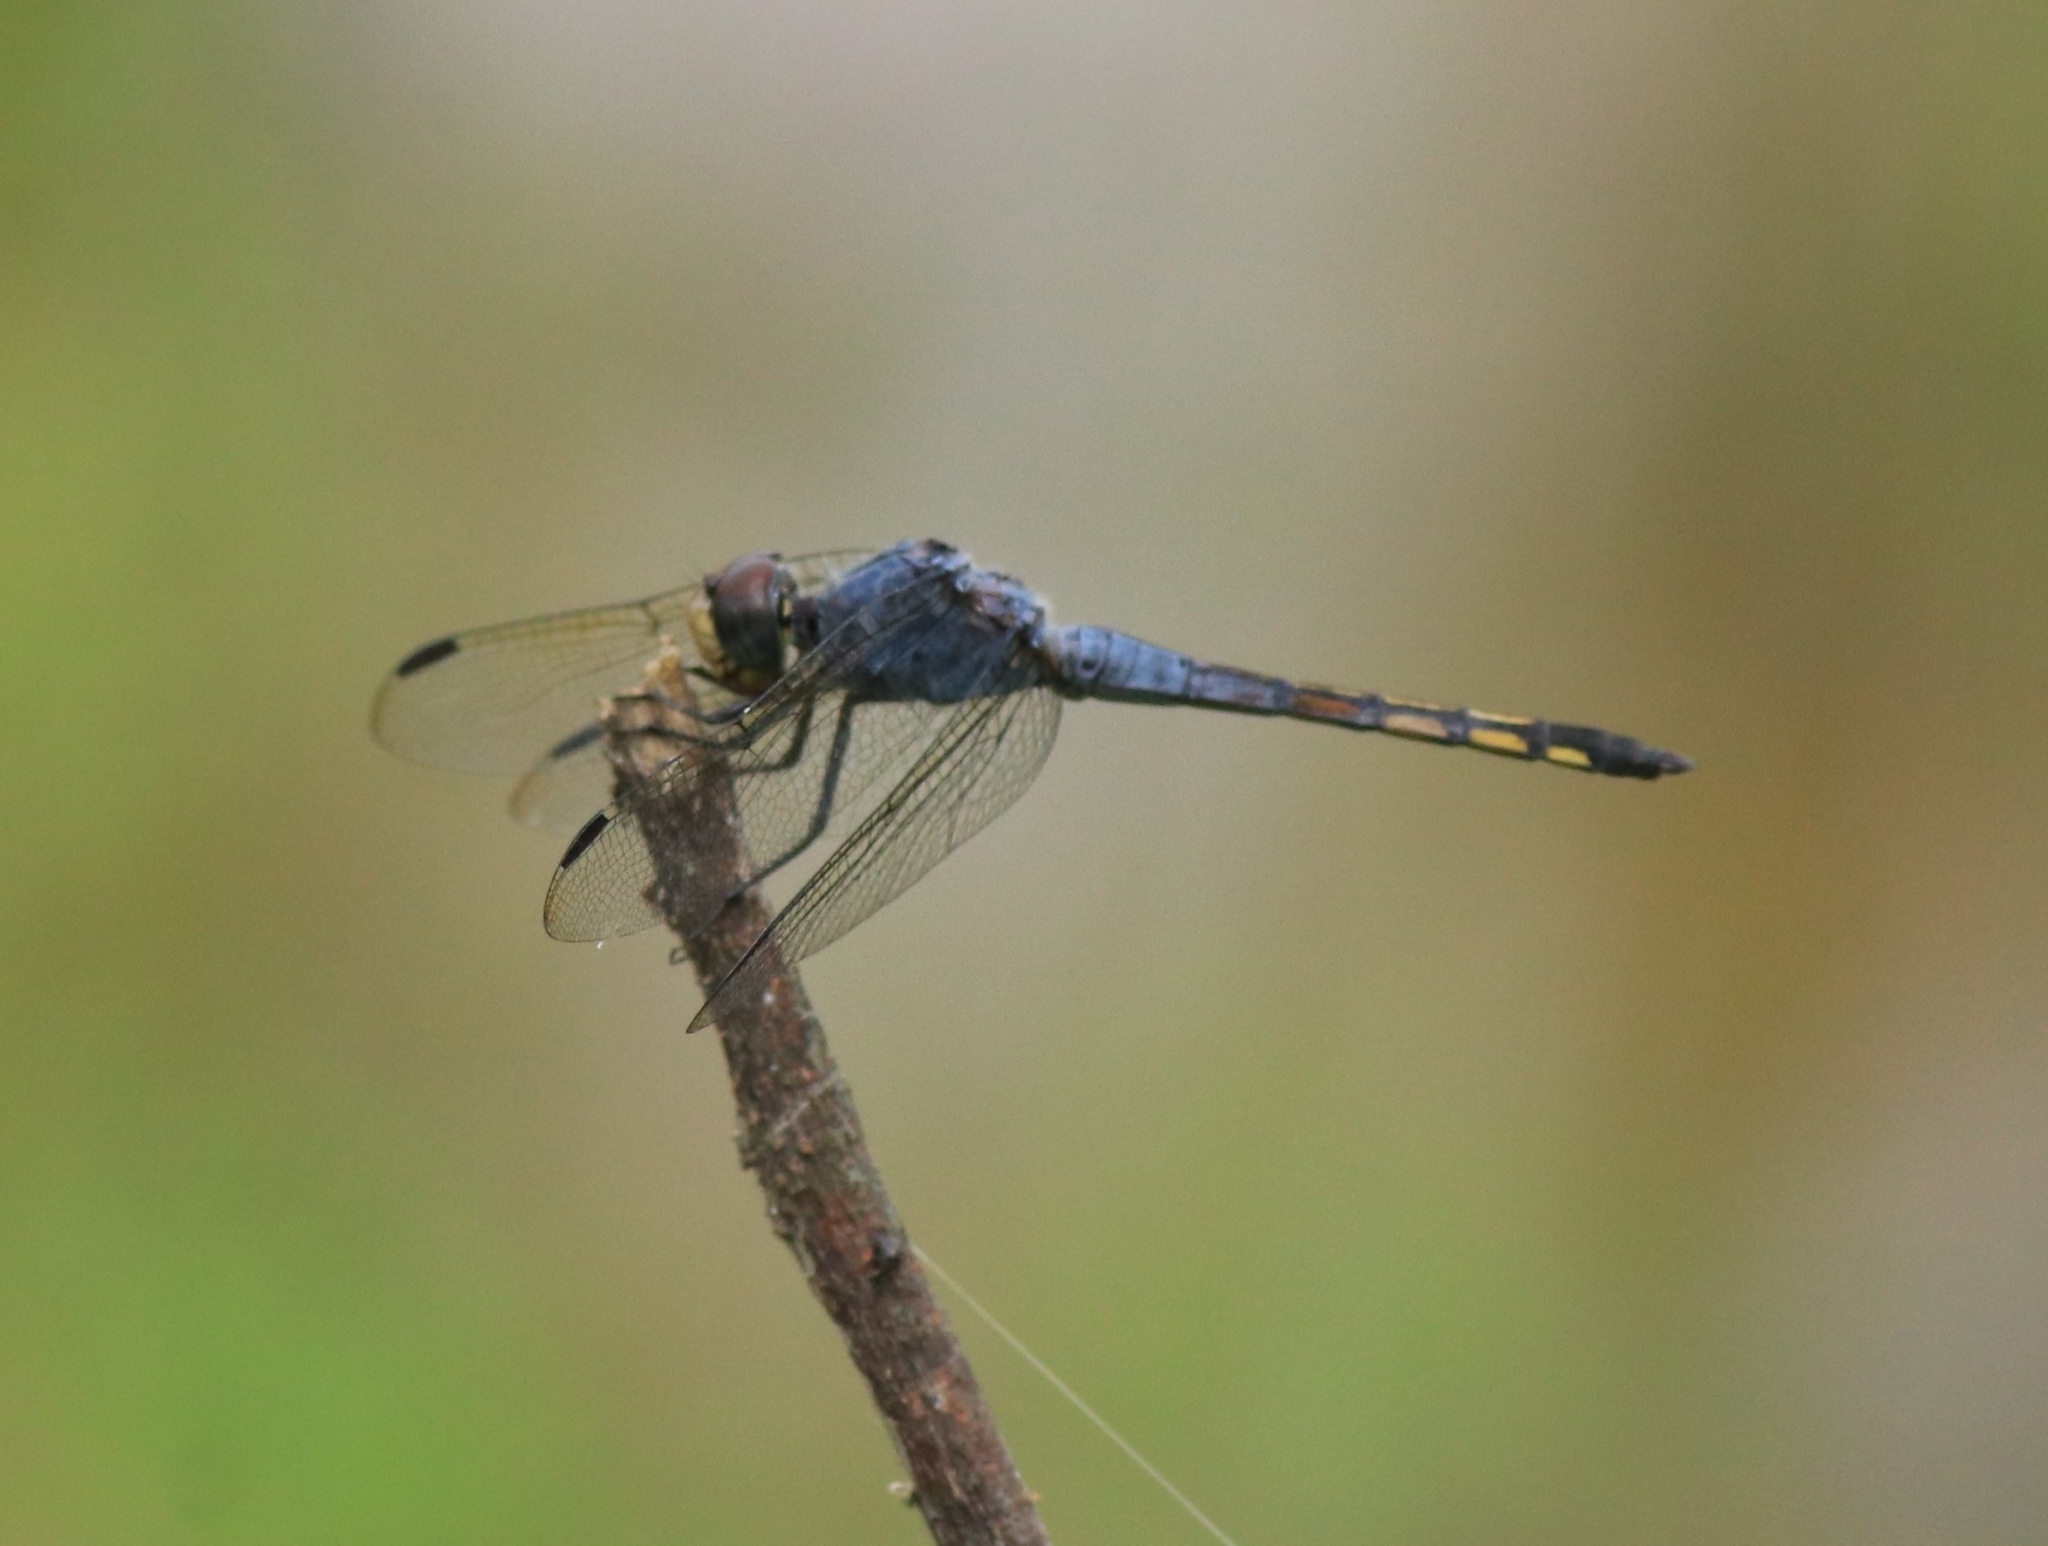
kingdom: Animalia
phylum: Arthropoda
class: Insecta
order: Odonata
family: Libellulidae
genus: Potamarcha
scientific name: Potamarcha congener
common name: Blue chaser
